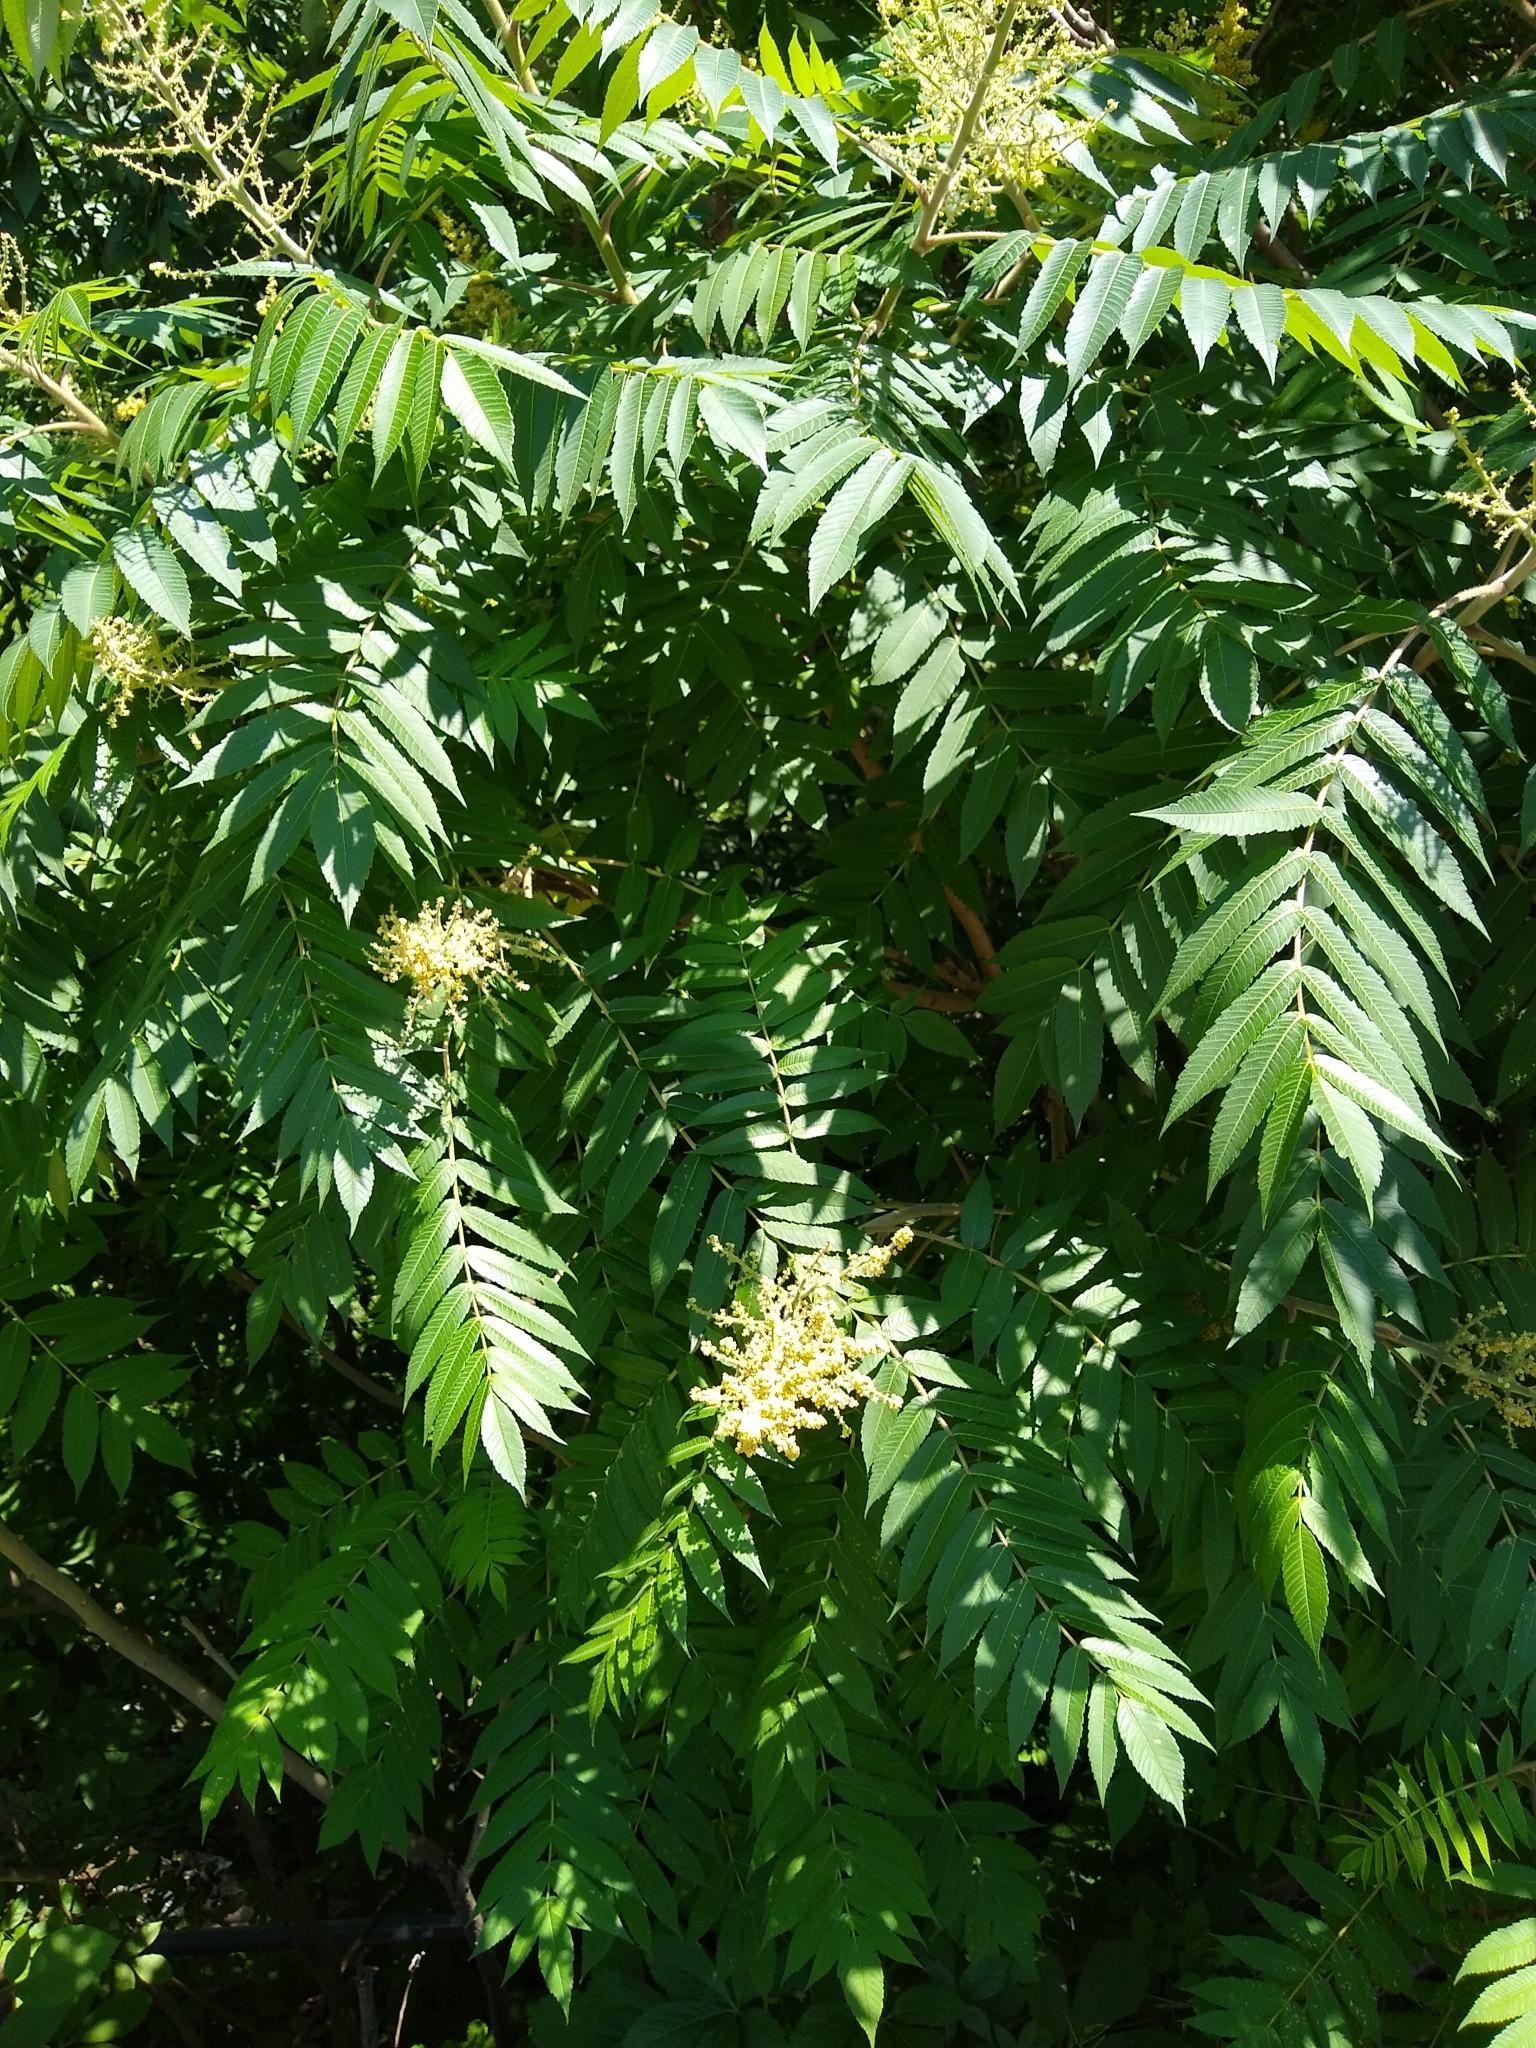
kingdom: Plantae
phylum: Tracheophyta
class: Magnoliopsida
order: Sapindales
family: Anacardiaceae
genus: Rhus
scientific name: Rhus typhina
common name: Staghorn sumac
